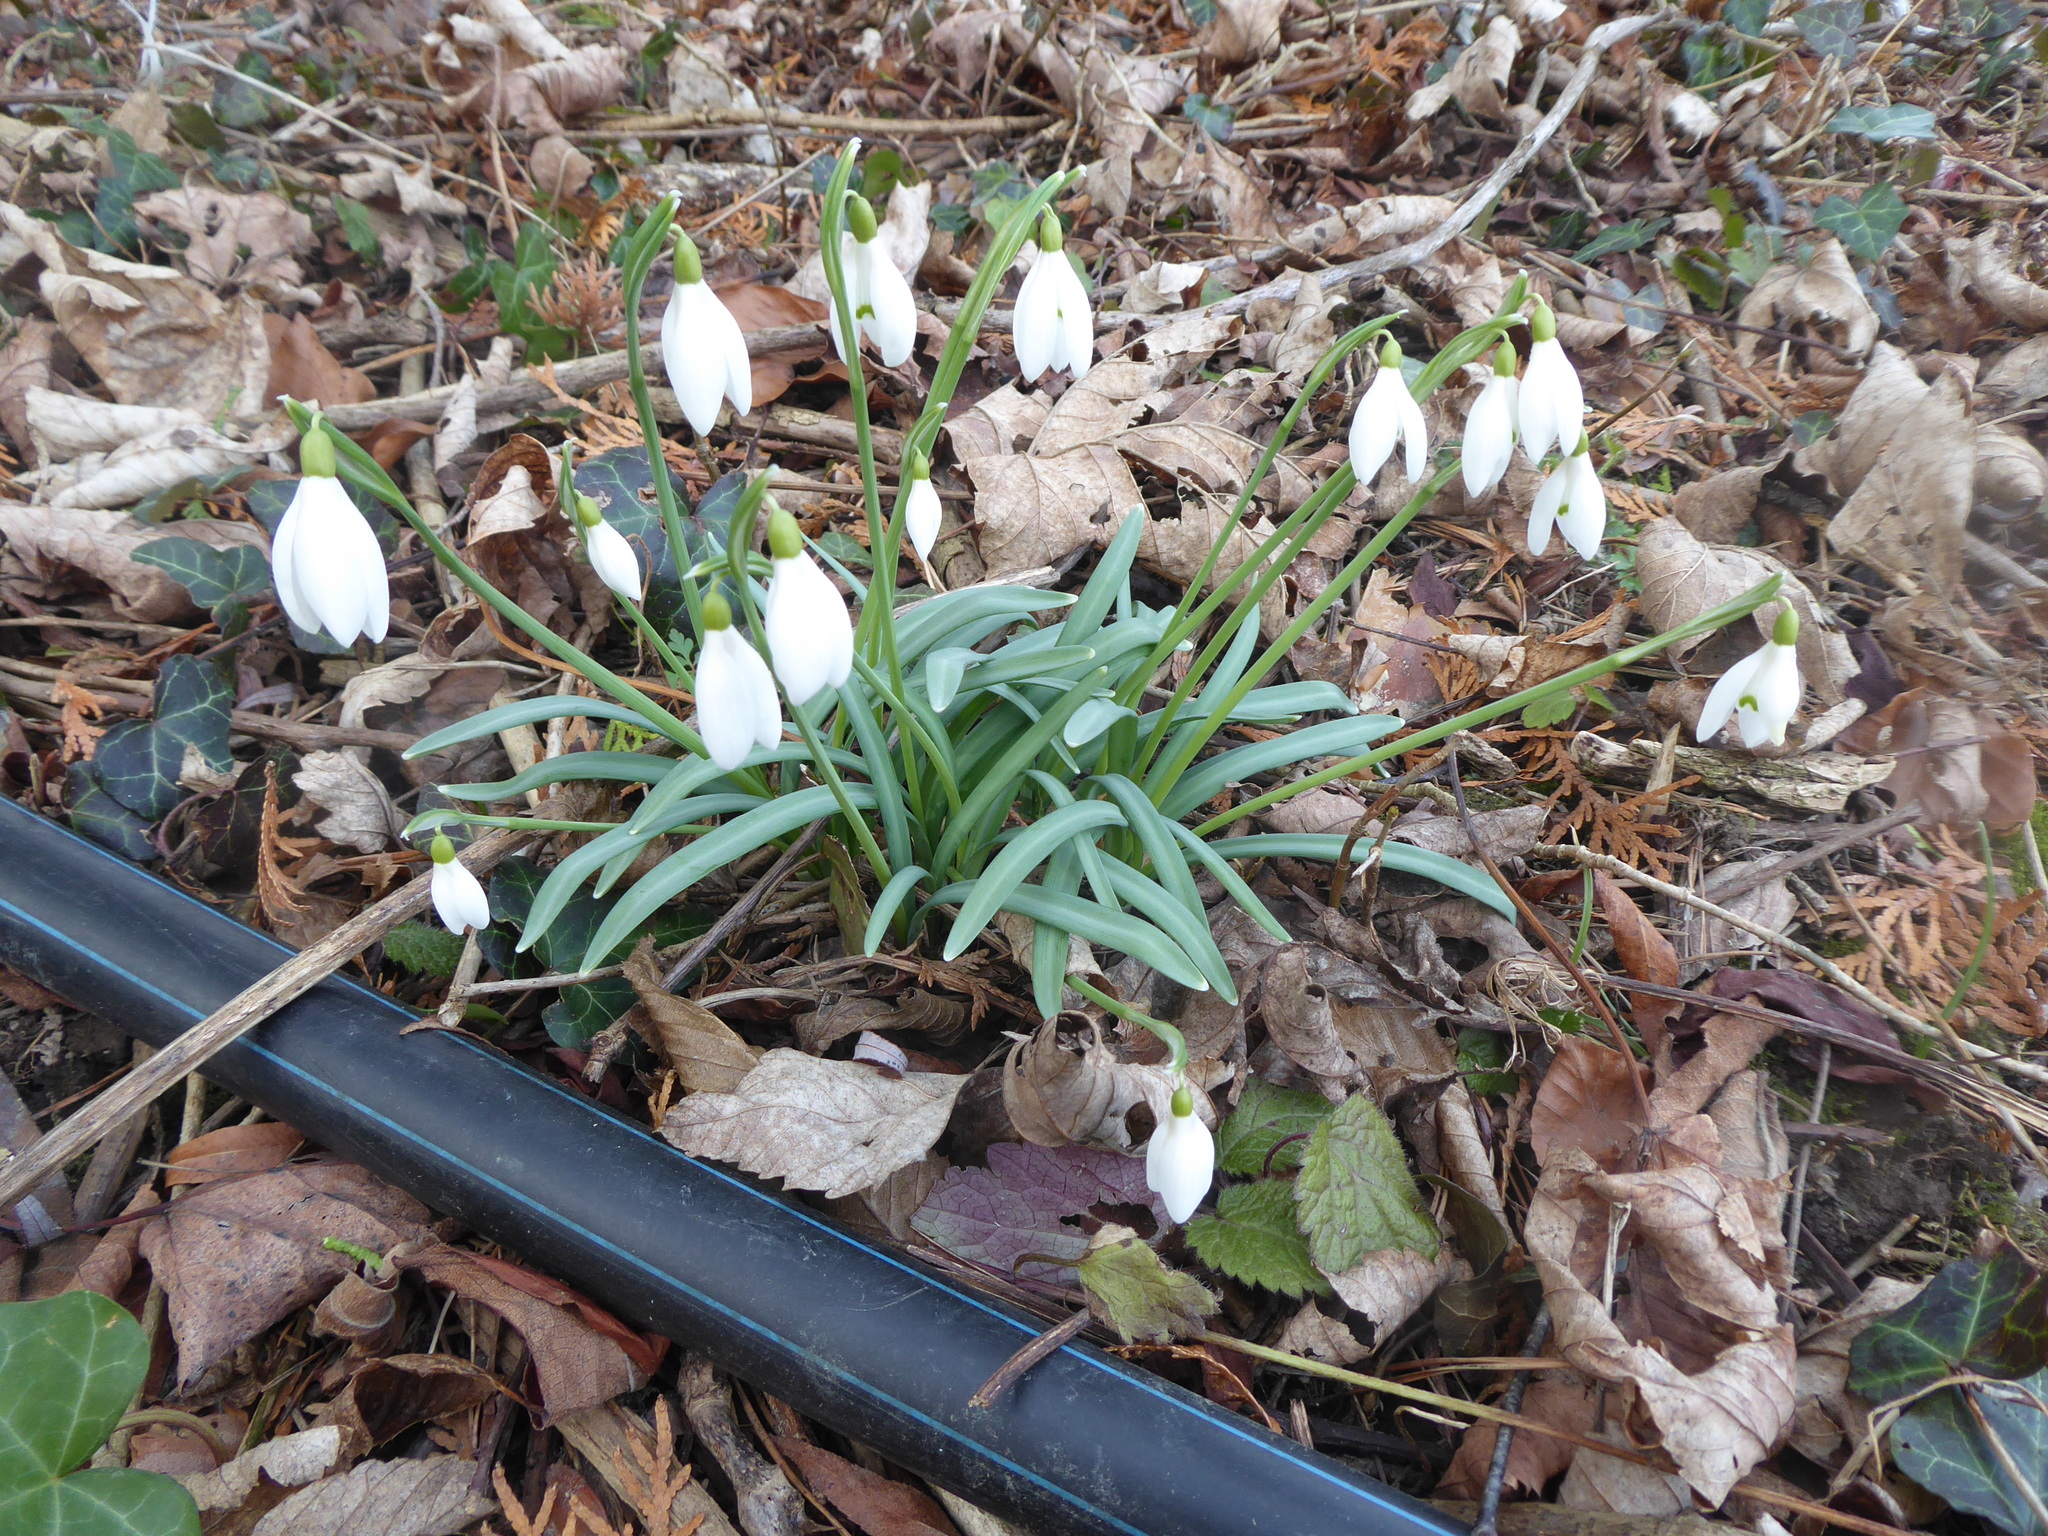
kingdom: Plantae
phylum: Tracheophyta
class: Liliopsida
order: Asparagales
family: Amaryllidaceae
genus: Galanthus
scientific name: Galanthus nivalis
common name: Snowdrop
